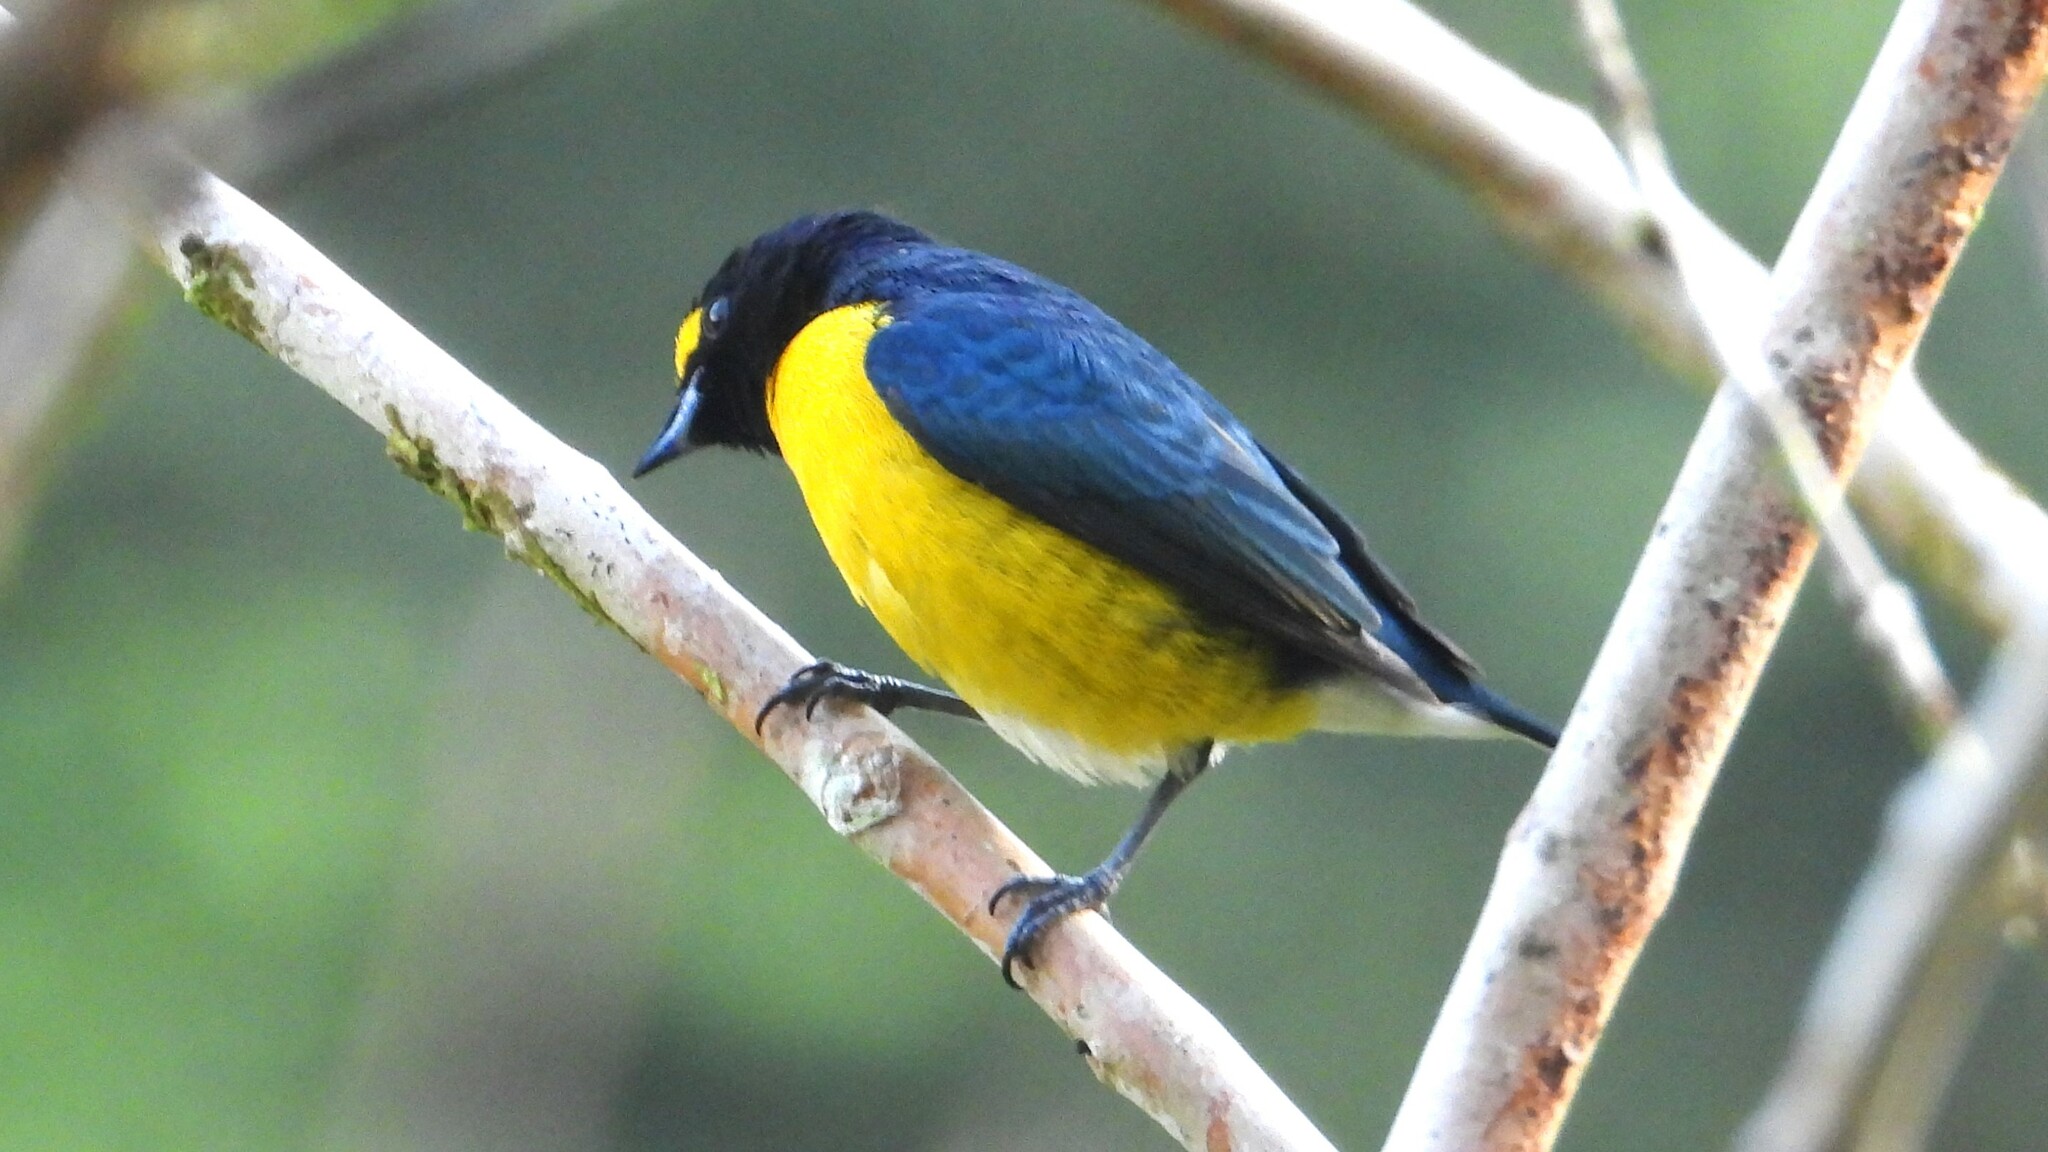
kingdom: Animalia
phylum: Chordata
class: Aves
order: Passeriformes
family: Fringillidae
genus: Euphonia
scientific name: Euphonia minuta
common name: White-vented euphonia
